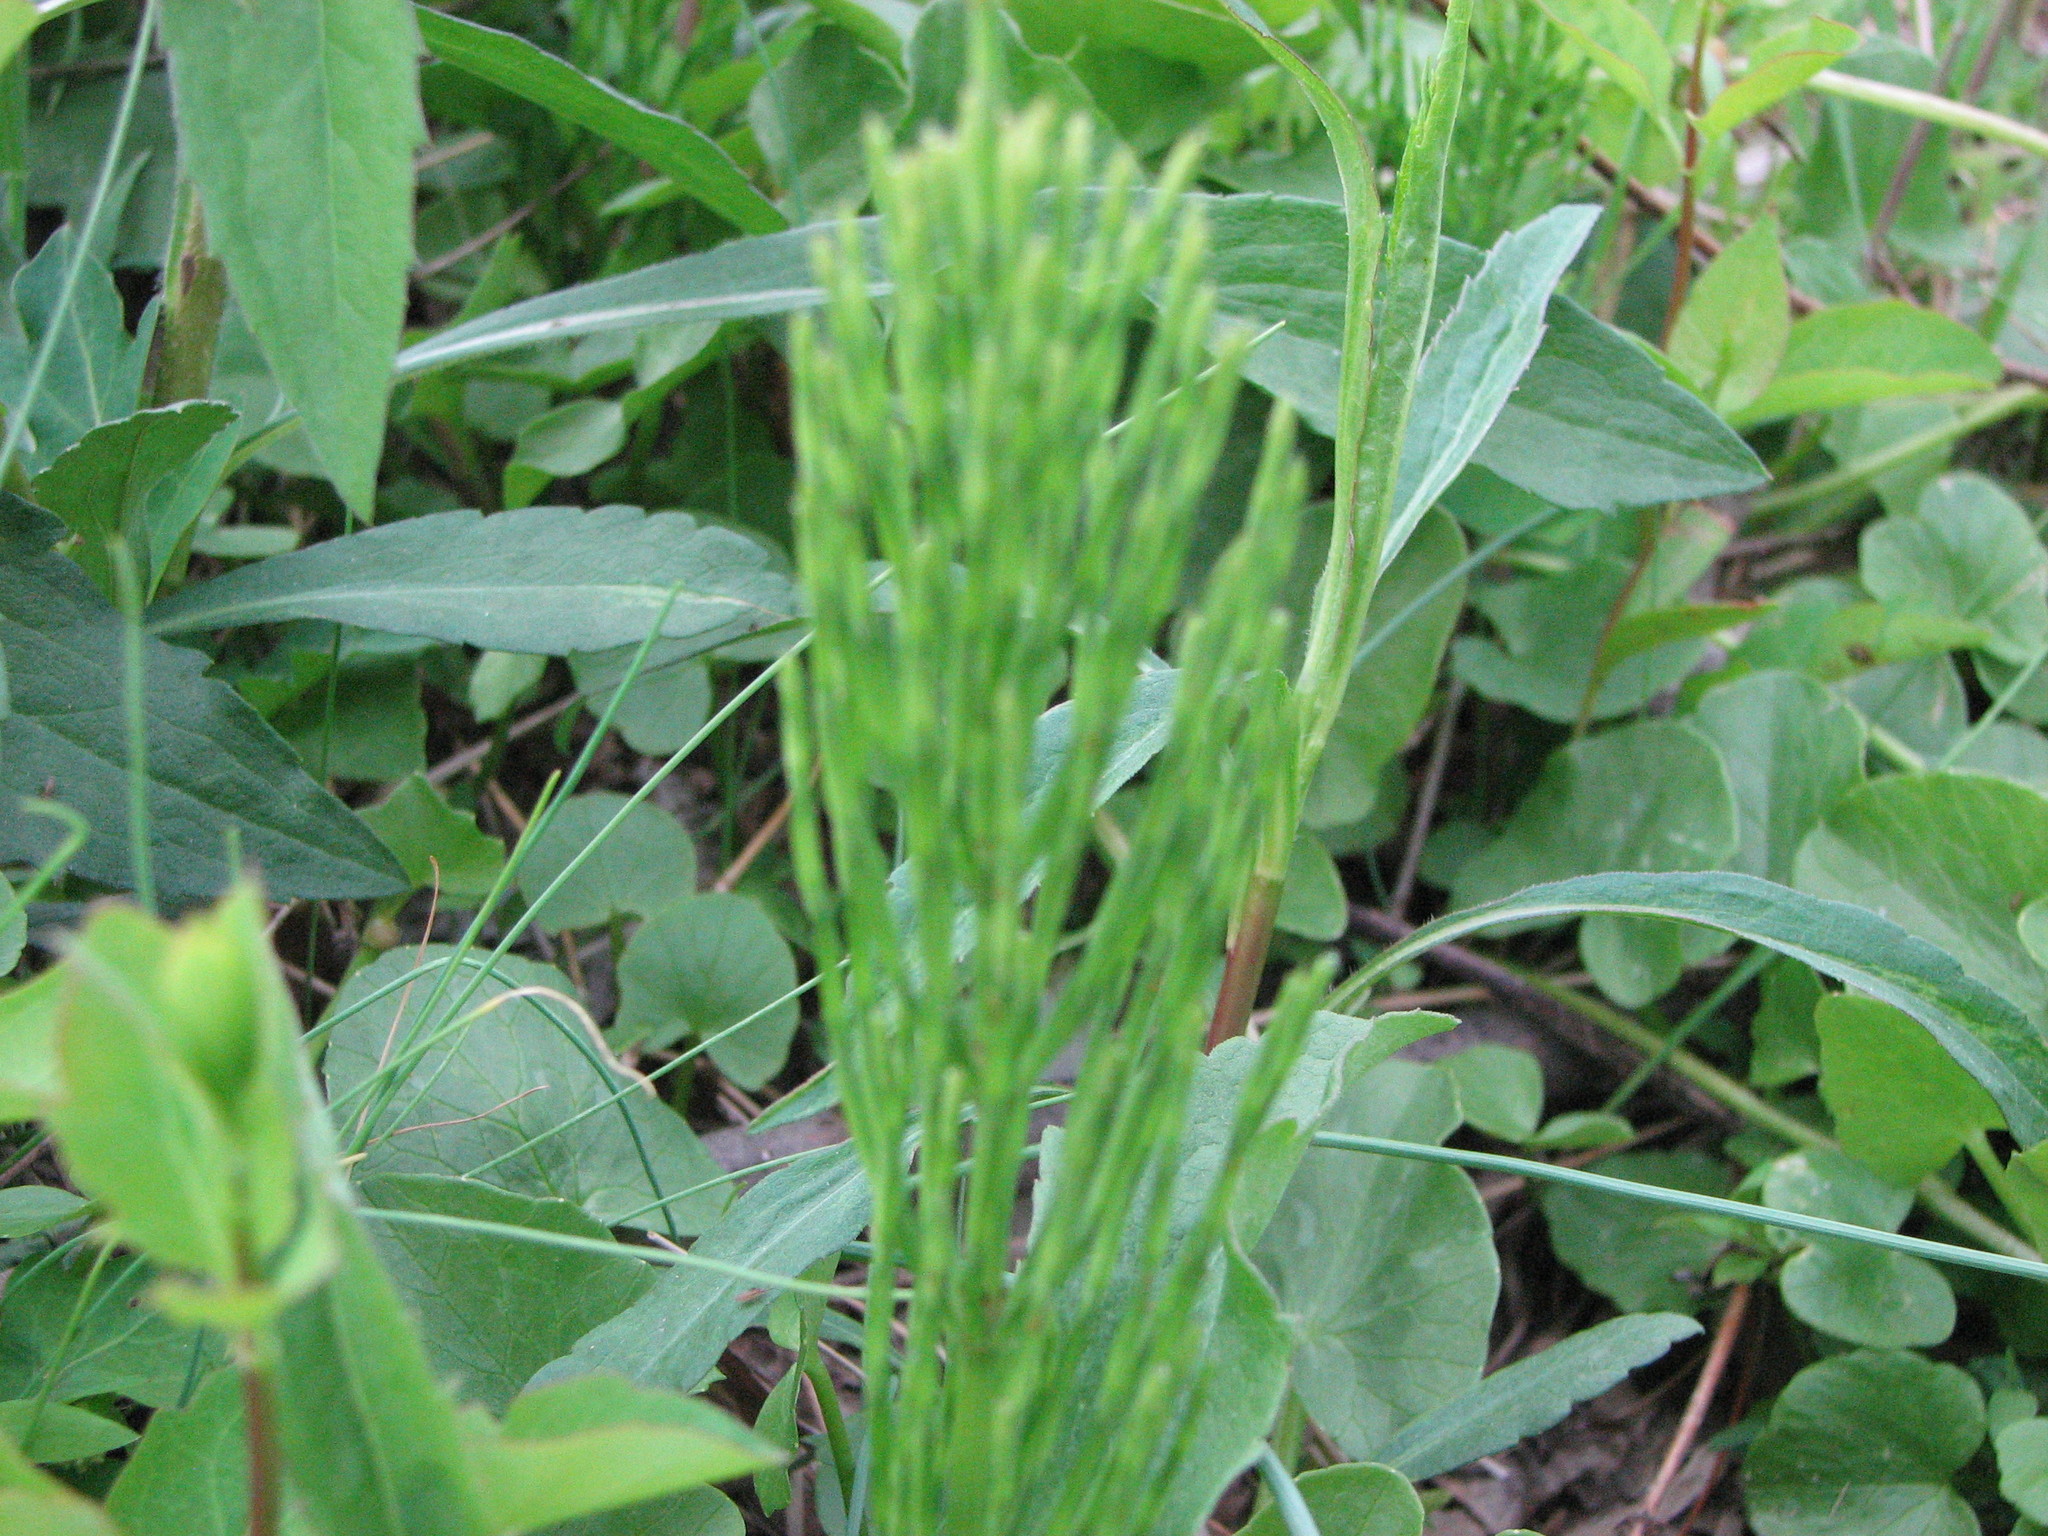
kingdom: Plantae
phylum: Tracheophyta
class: Polypodiopsida
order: Equisetales
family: Equisetaceae
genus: Equisetum
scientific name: Equisetum arvense
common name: Field horsetail
